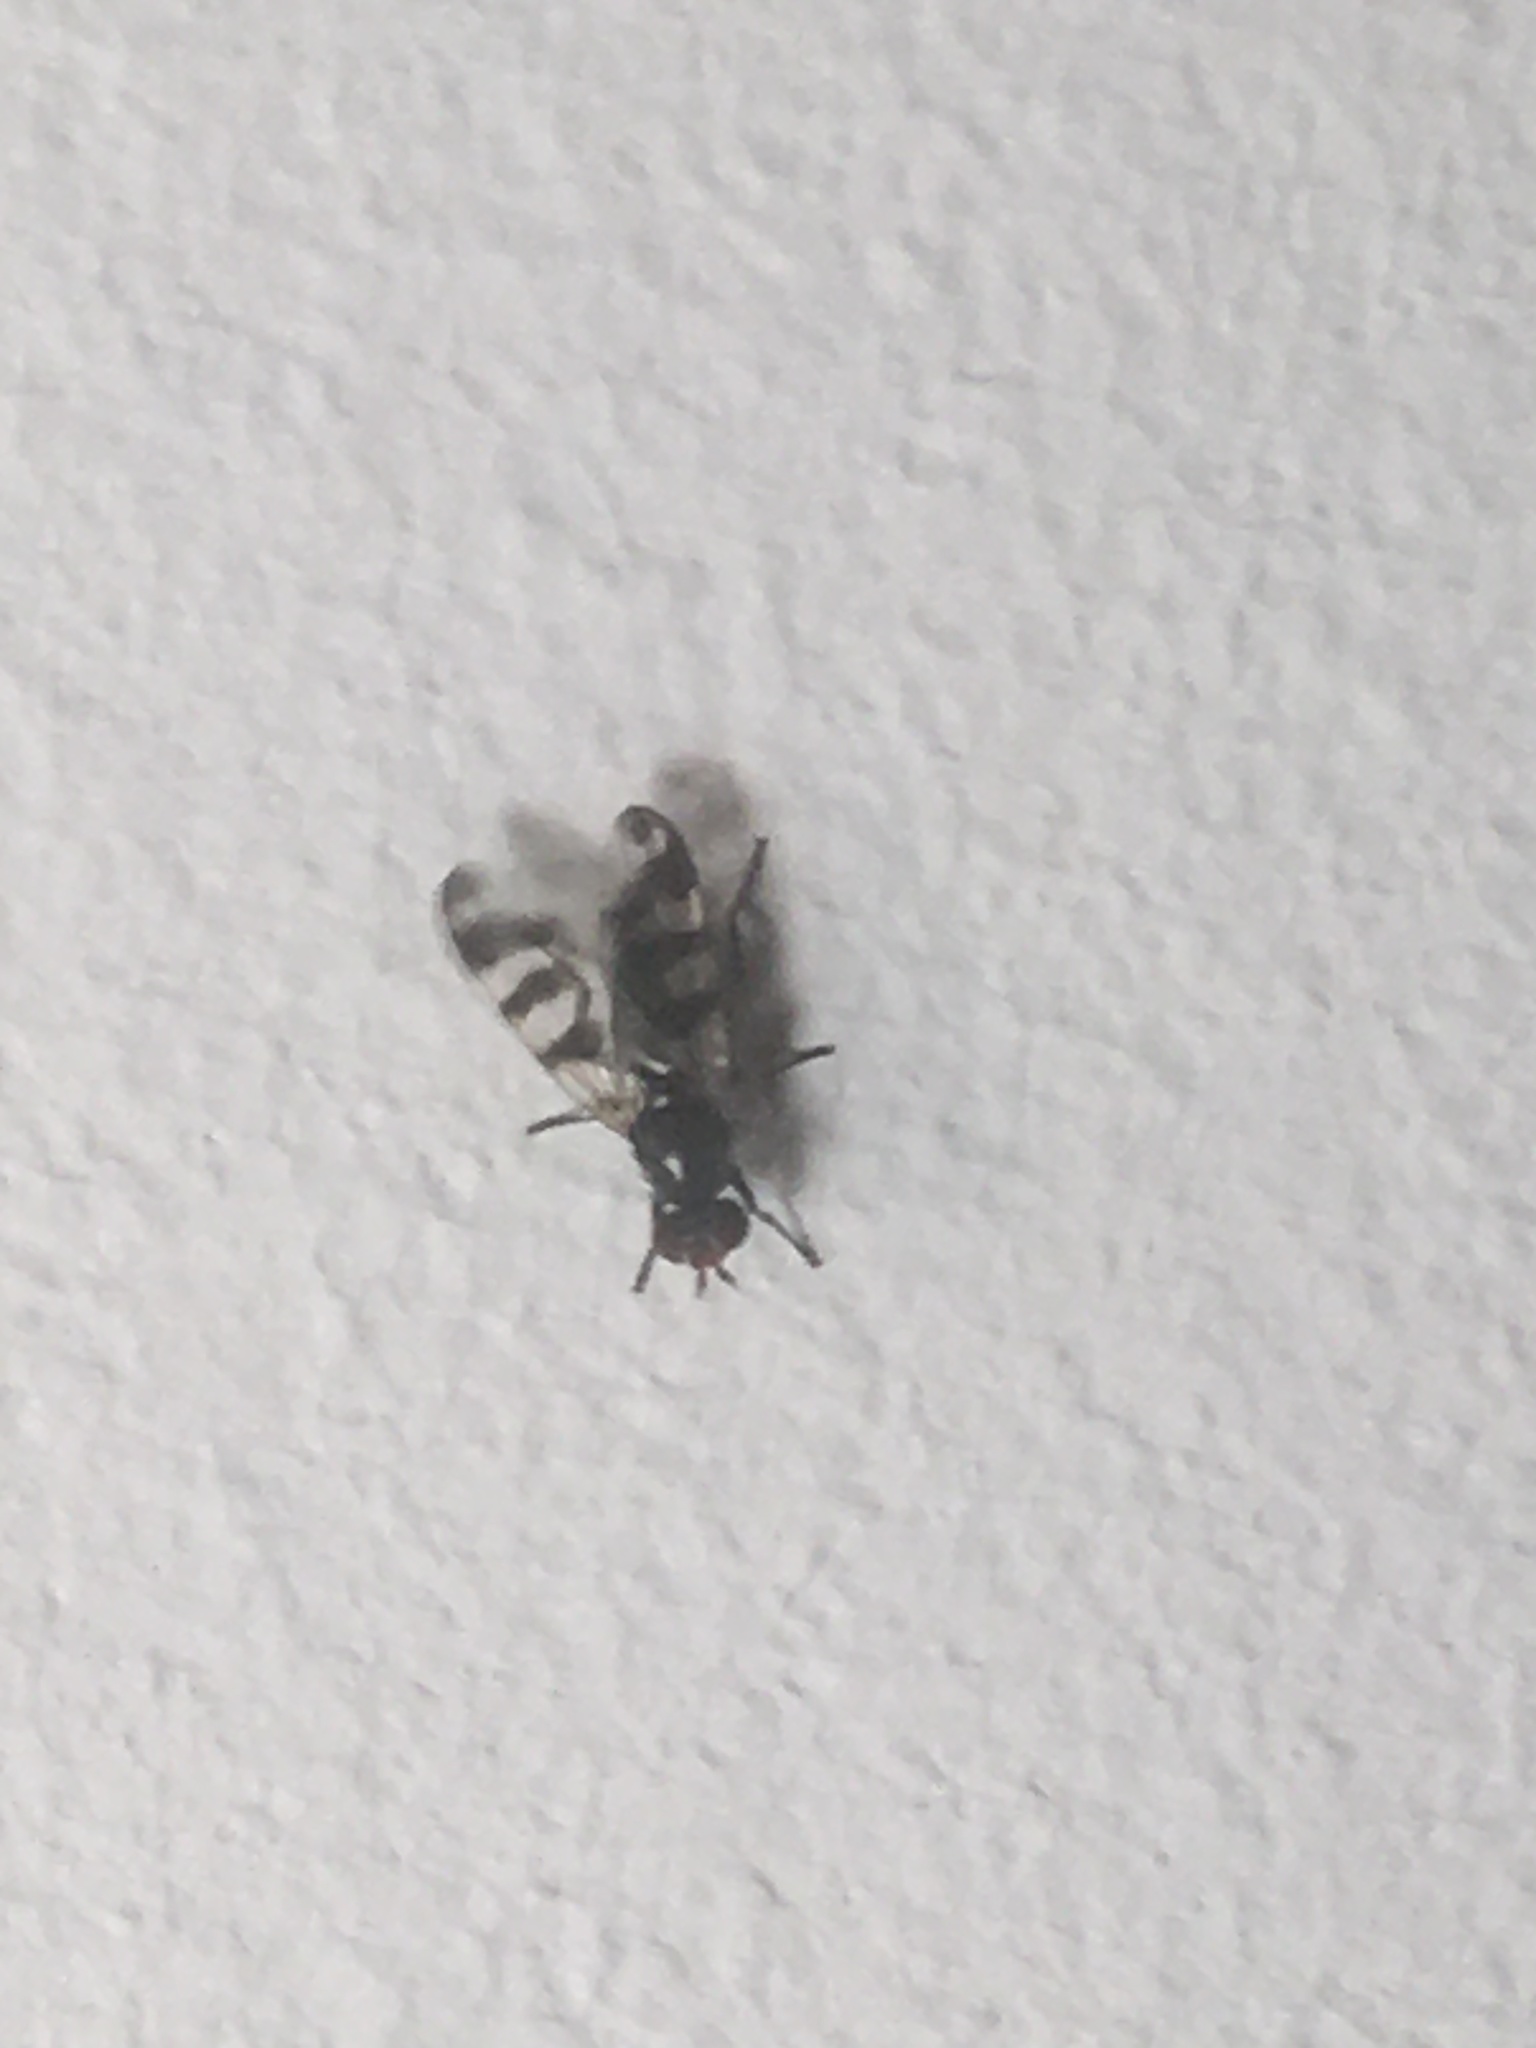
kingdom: Animalia
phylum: Arthropoda
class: Insecta
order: Diptera
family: Ulidiidae
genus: Ceroxys
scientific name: Ceroxys urticae
